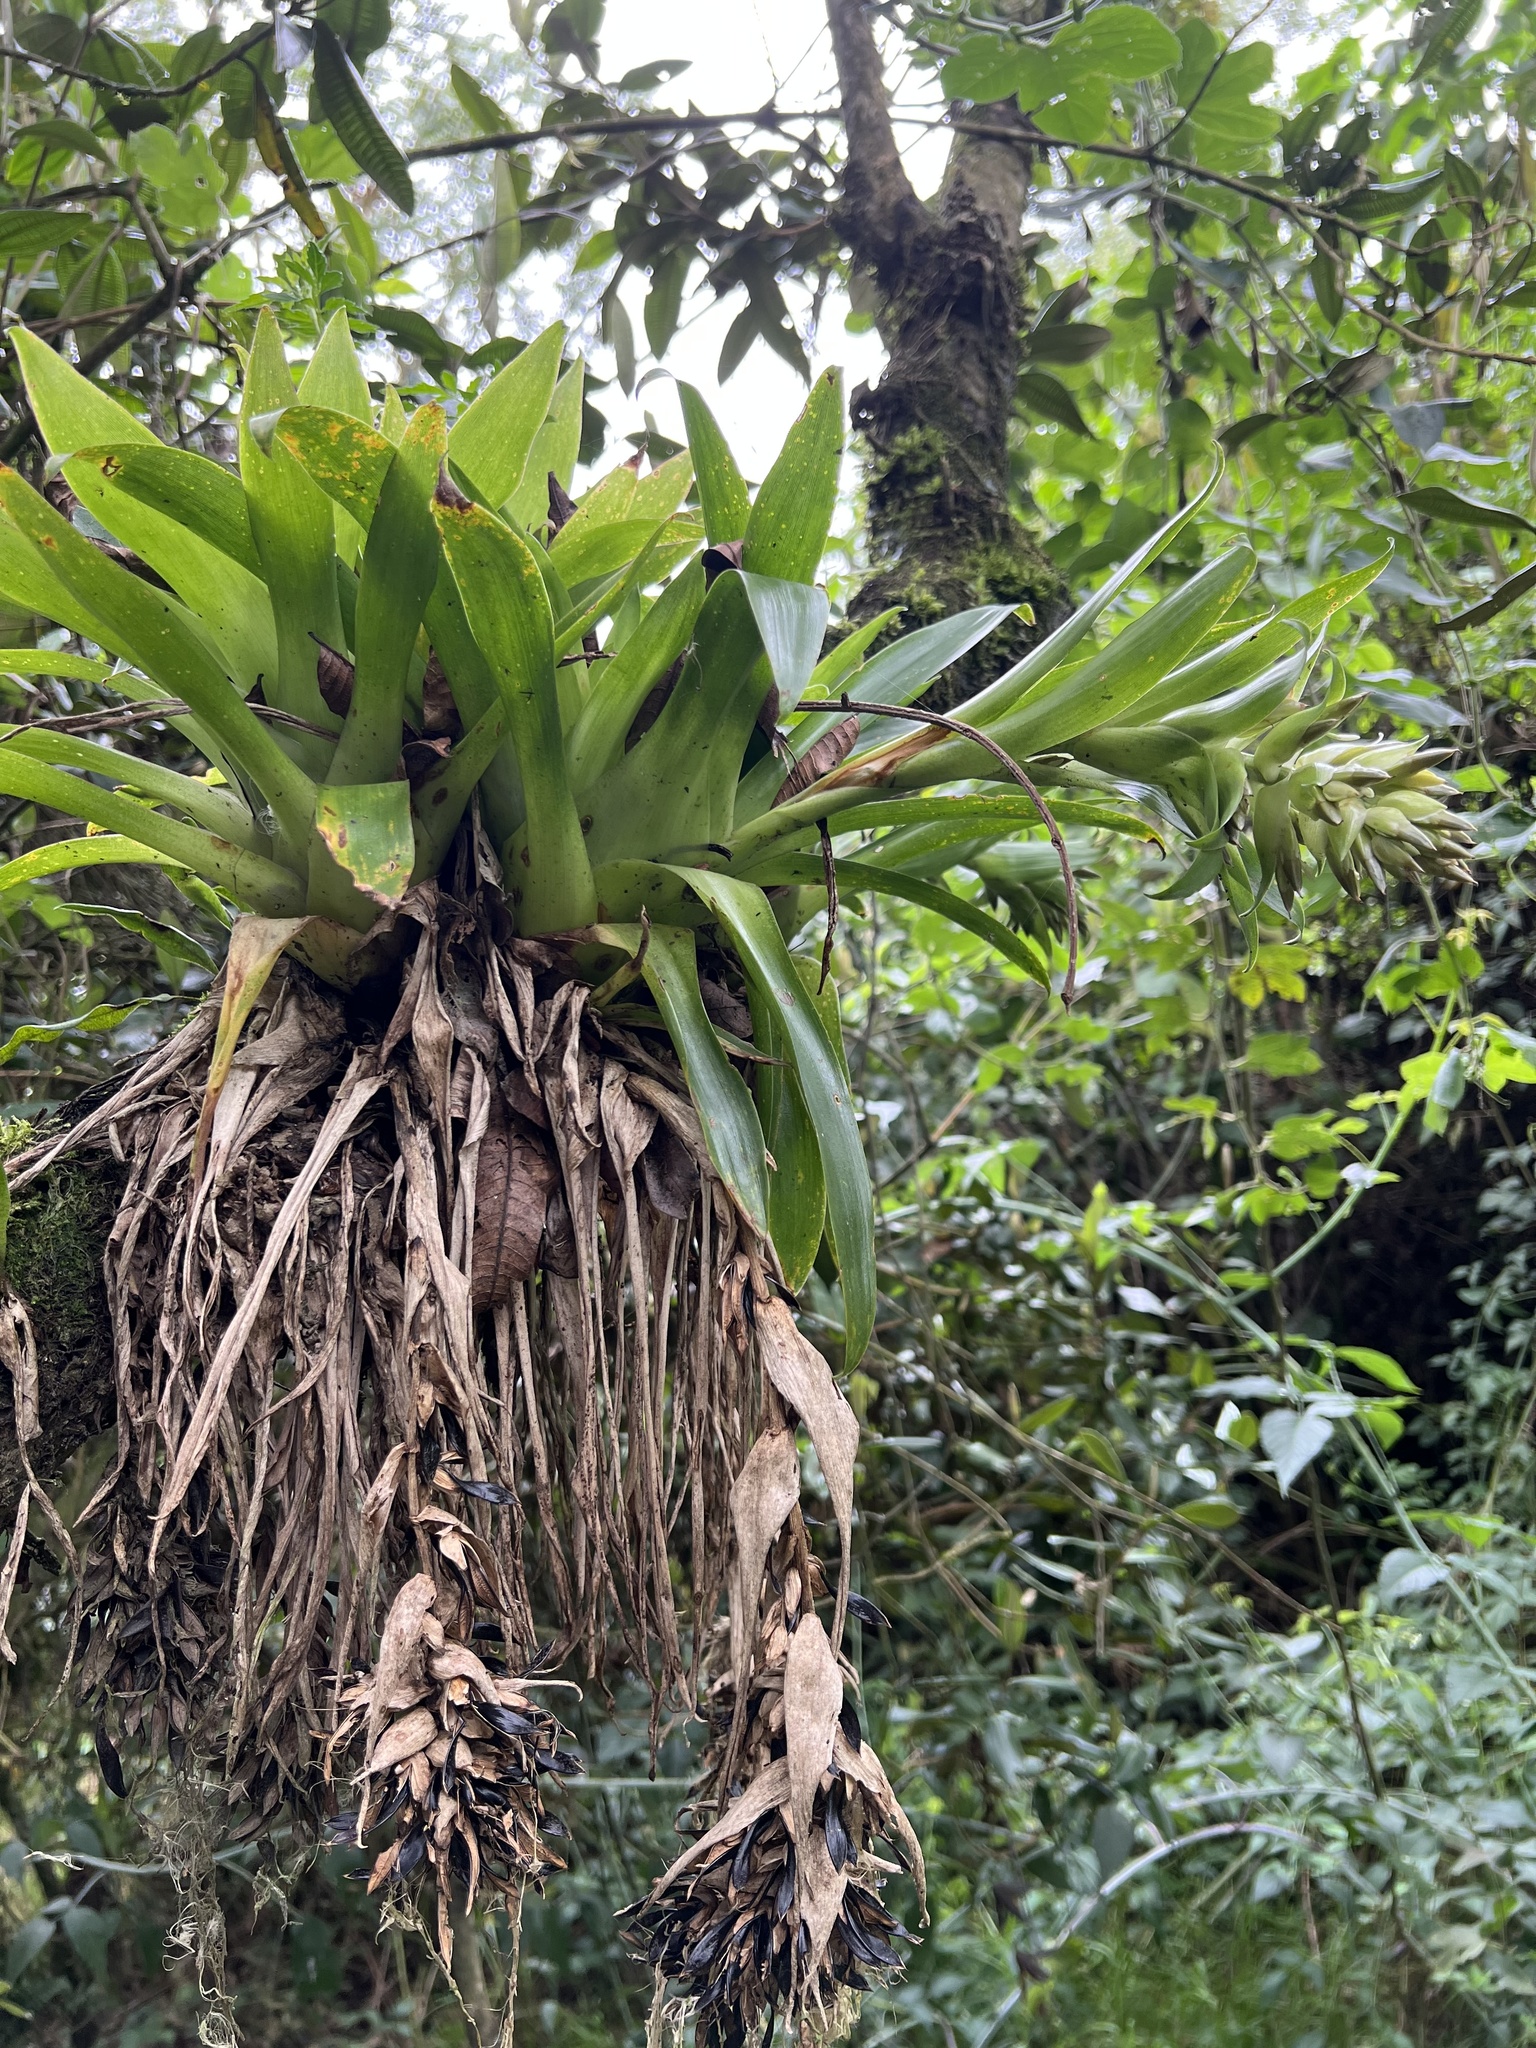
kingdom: Plantae
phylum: Tracheophyta
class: Liliopsida
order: Poales
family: Bromeliaceae
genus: Tillandsia
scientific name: Tillandsia biflora
